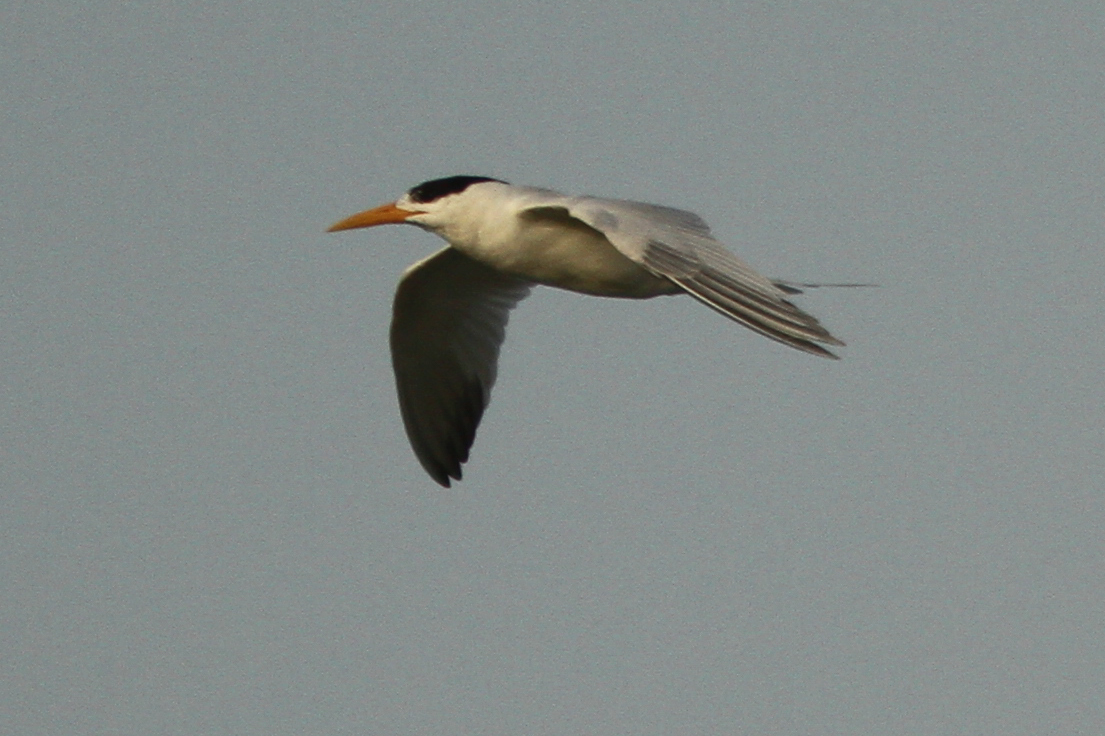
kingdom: Animalia
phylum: Chordata
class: Aves
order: Charadriiformes
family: Laridae
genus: Thalasseus
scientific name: Thalasseus albididorsalis
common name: West african crested tern
